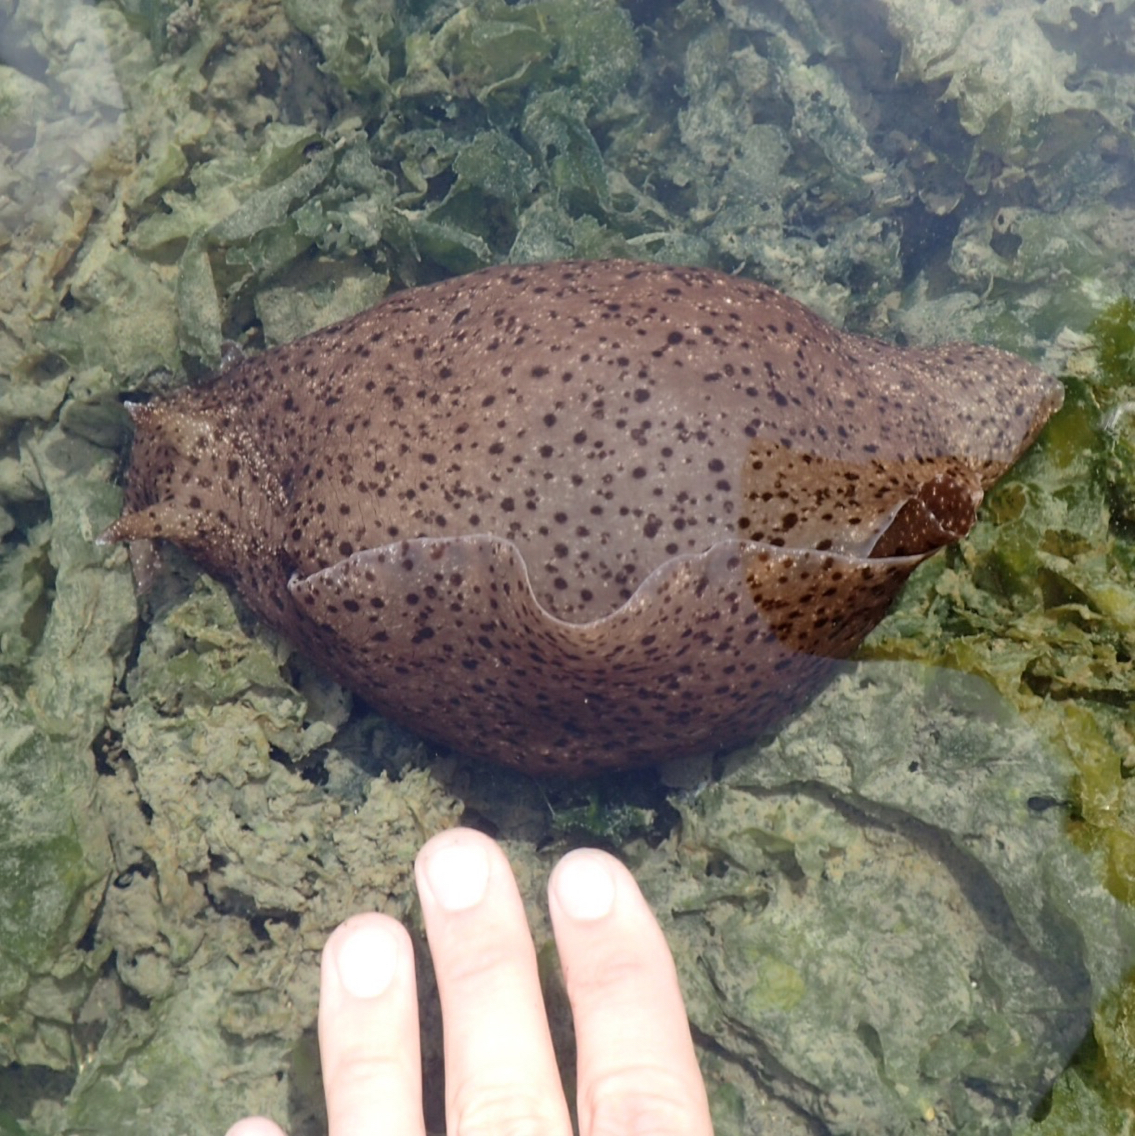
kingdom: Animalia
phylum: Mollusca
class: Gastropoda
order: Aplysiida
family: Aplysiidae
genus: Aplysia
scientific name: Aplysia californica
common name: California seahare
